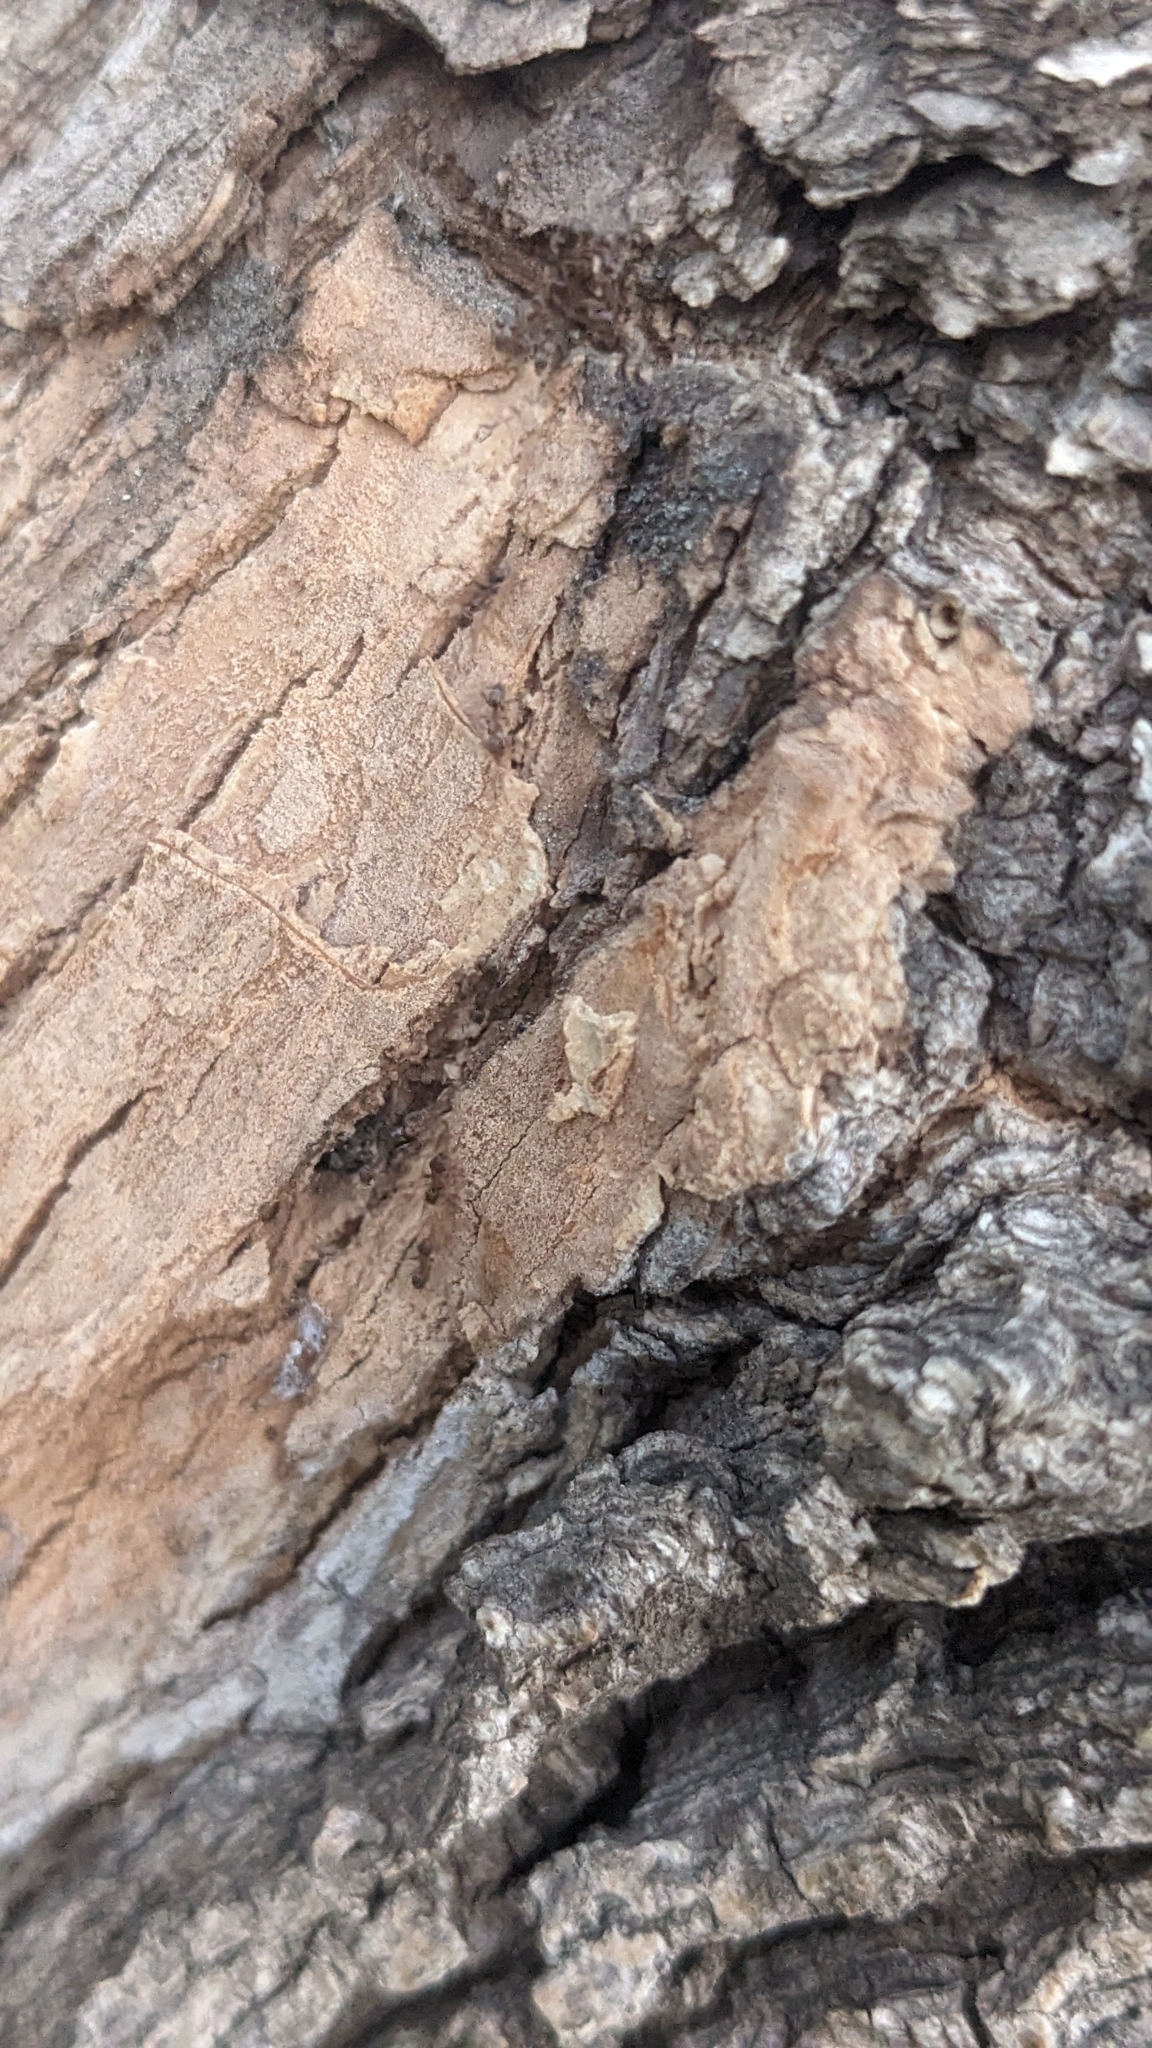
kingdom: Animalia
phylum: Arthropoda
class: Insecta
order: Hymenoptera
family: Formicidae
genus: Linepithema
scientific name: Linepithema humile
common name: Argentine ant
